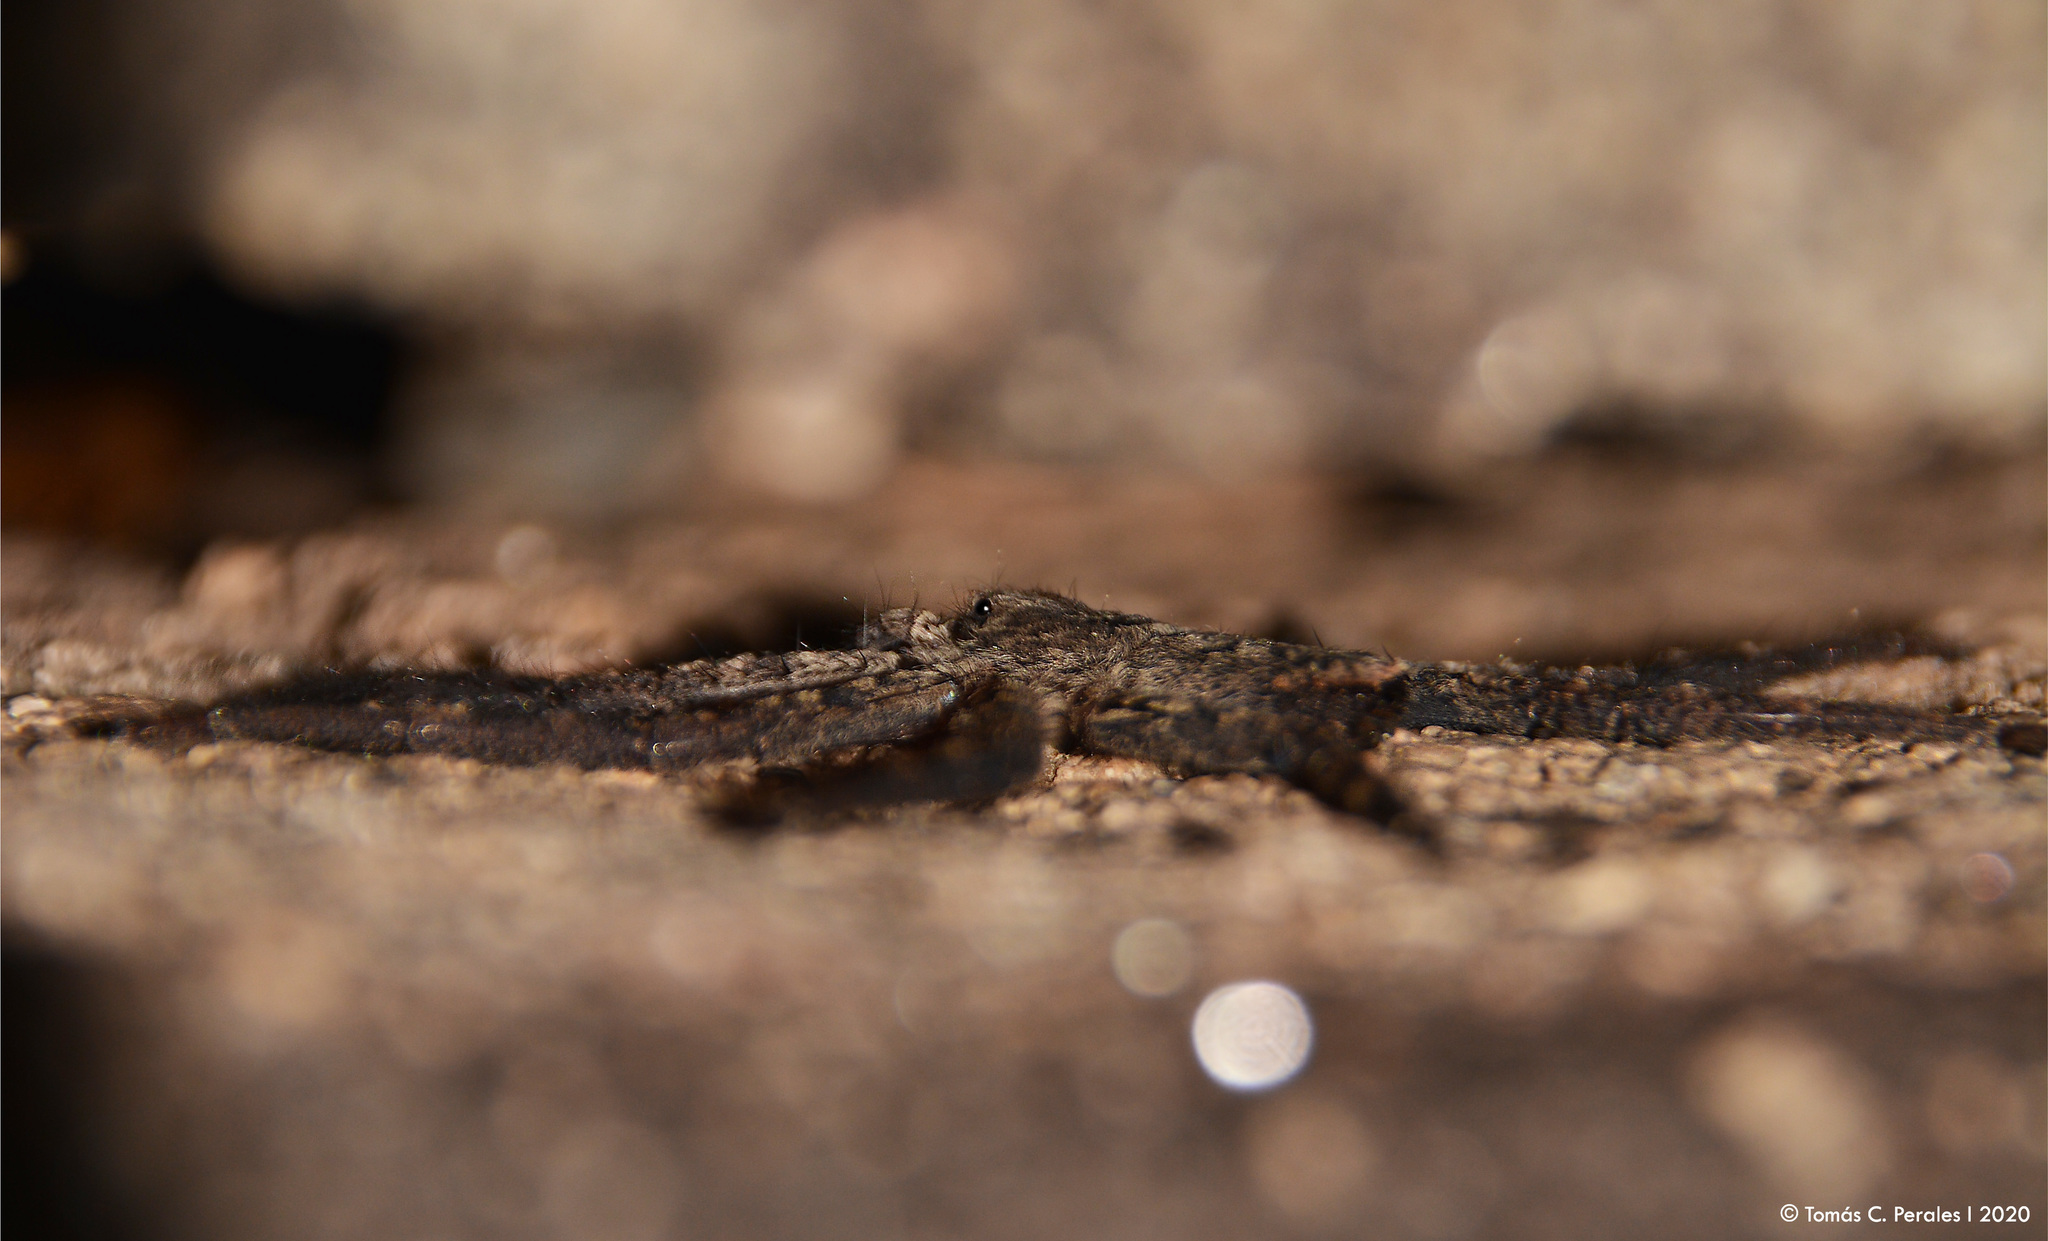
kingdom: Animalia
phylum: Arthropoda
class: Arachnida
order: Araneae
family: Selenopidae
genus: Selenops
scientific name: Selenops
